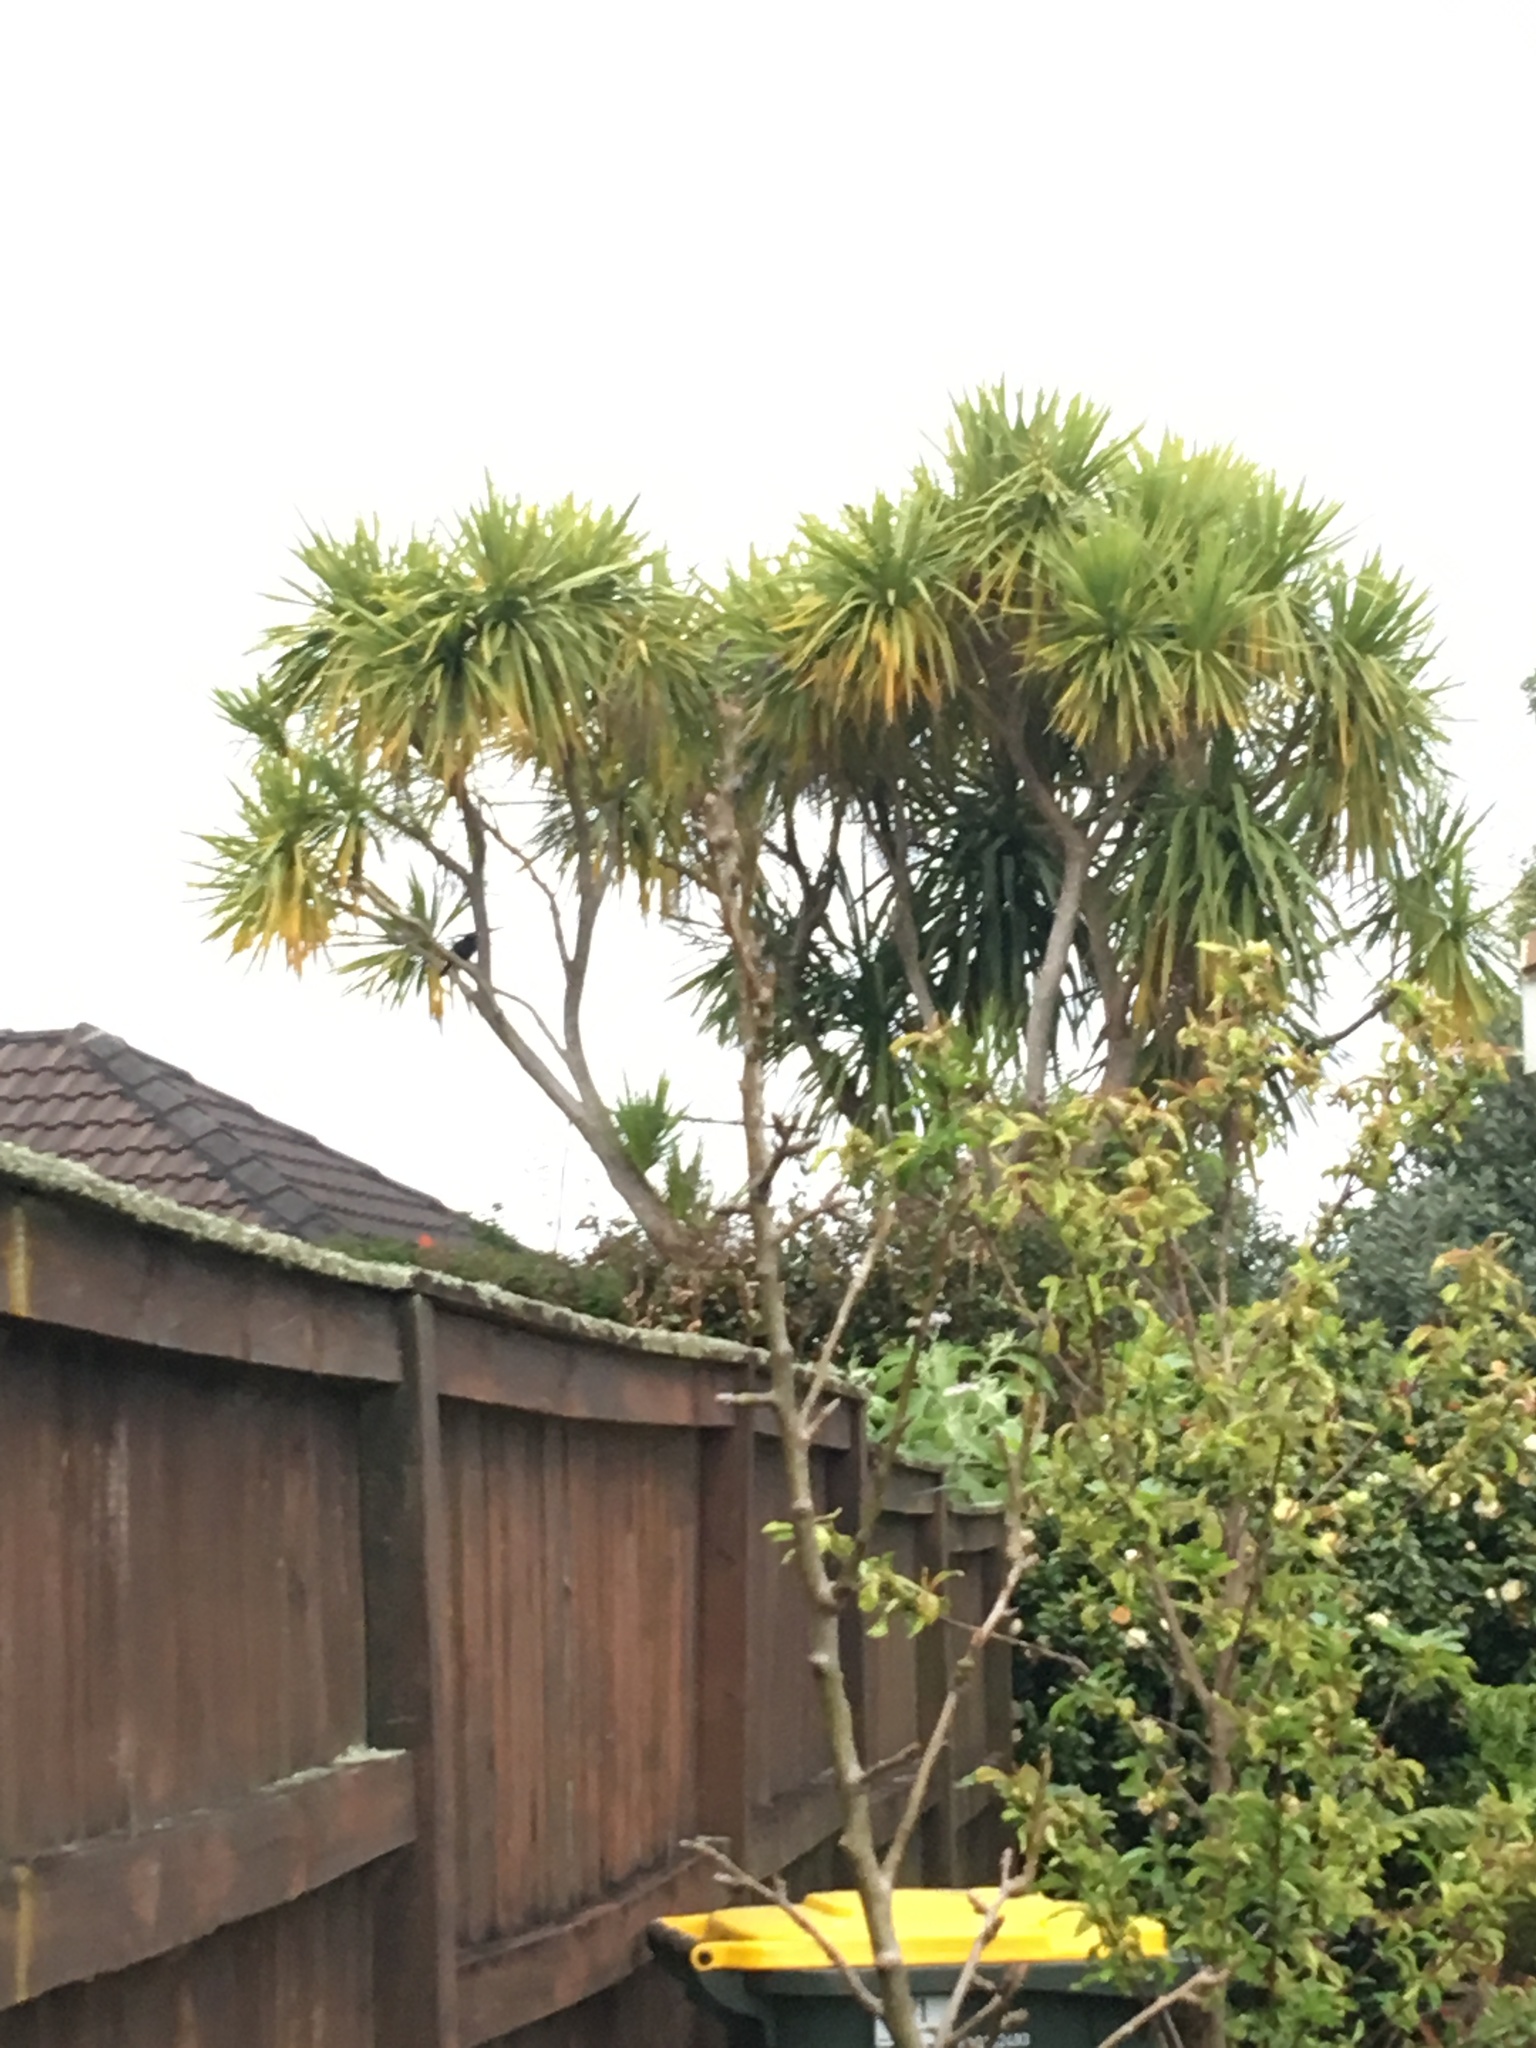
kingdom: Plantae
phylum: Tracheophyta
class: Liliopsida
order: Asparagales
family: Asparagaceae
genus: Cordyline
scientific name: Cordyline australis
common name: Cabbage-palm
